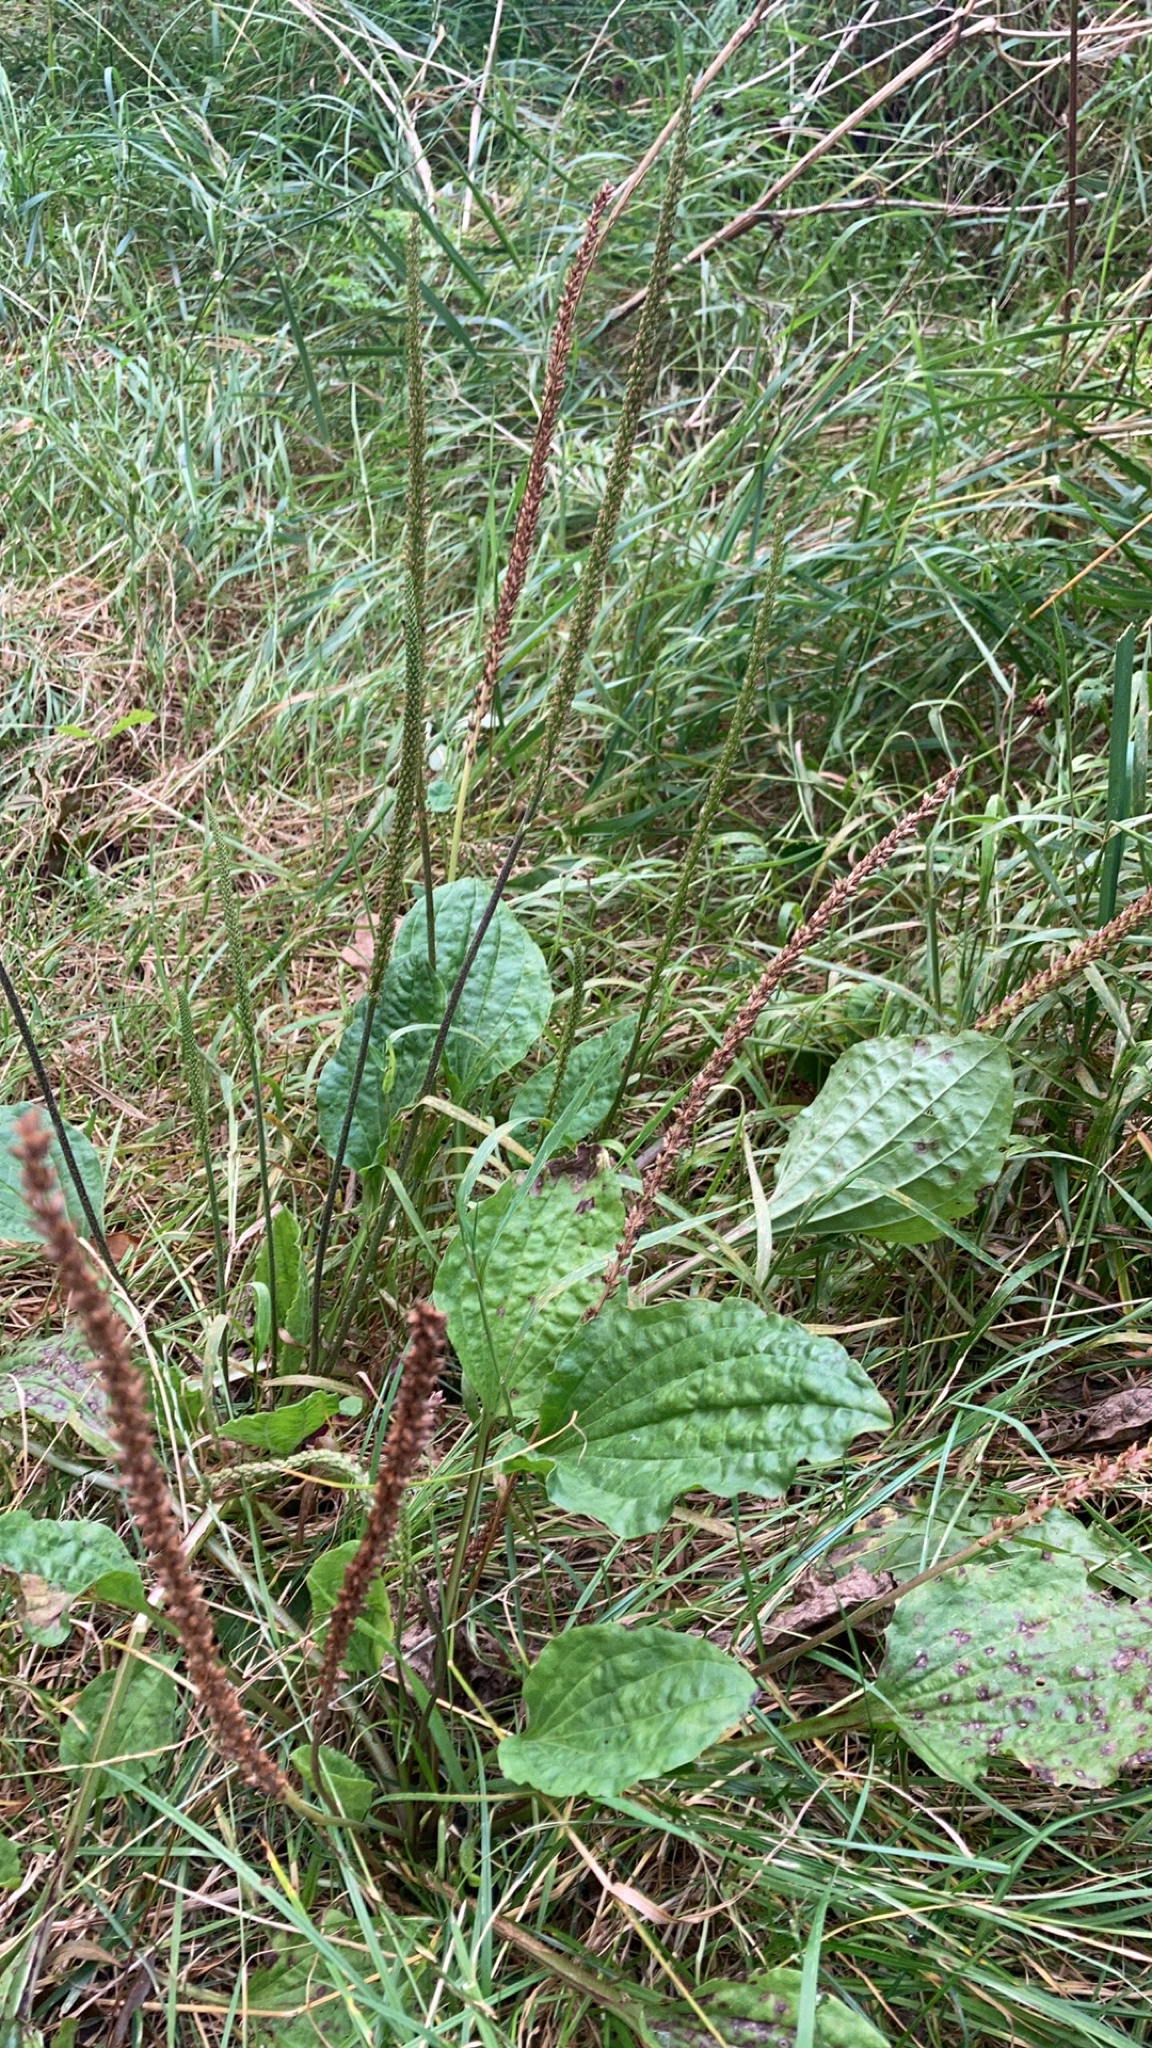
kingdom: Plantae
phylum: Tracheophyta
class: Magnoliopsida
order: Lamiales
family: Plantaginaceae
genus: Plantago
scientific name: Plantago major
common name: Common plantain
